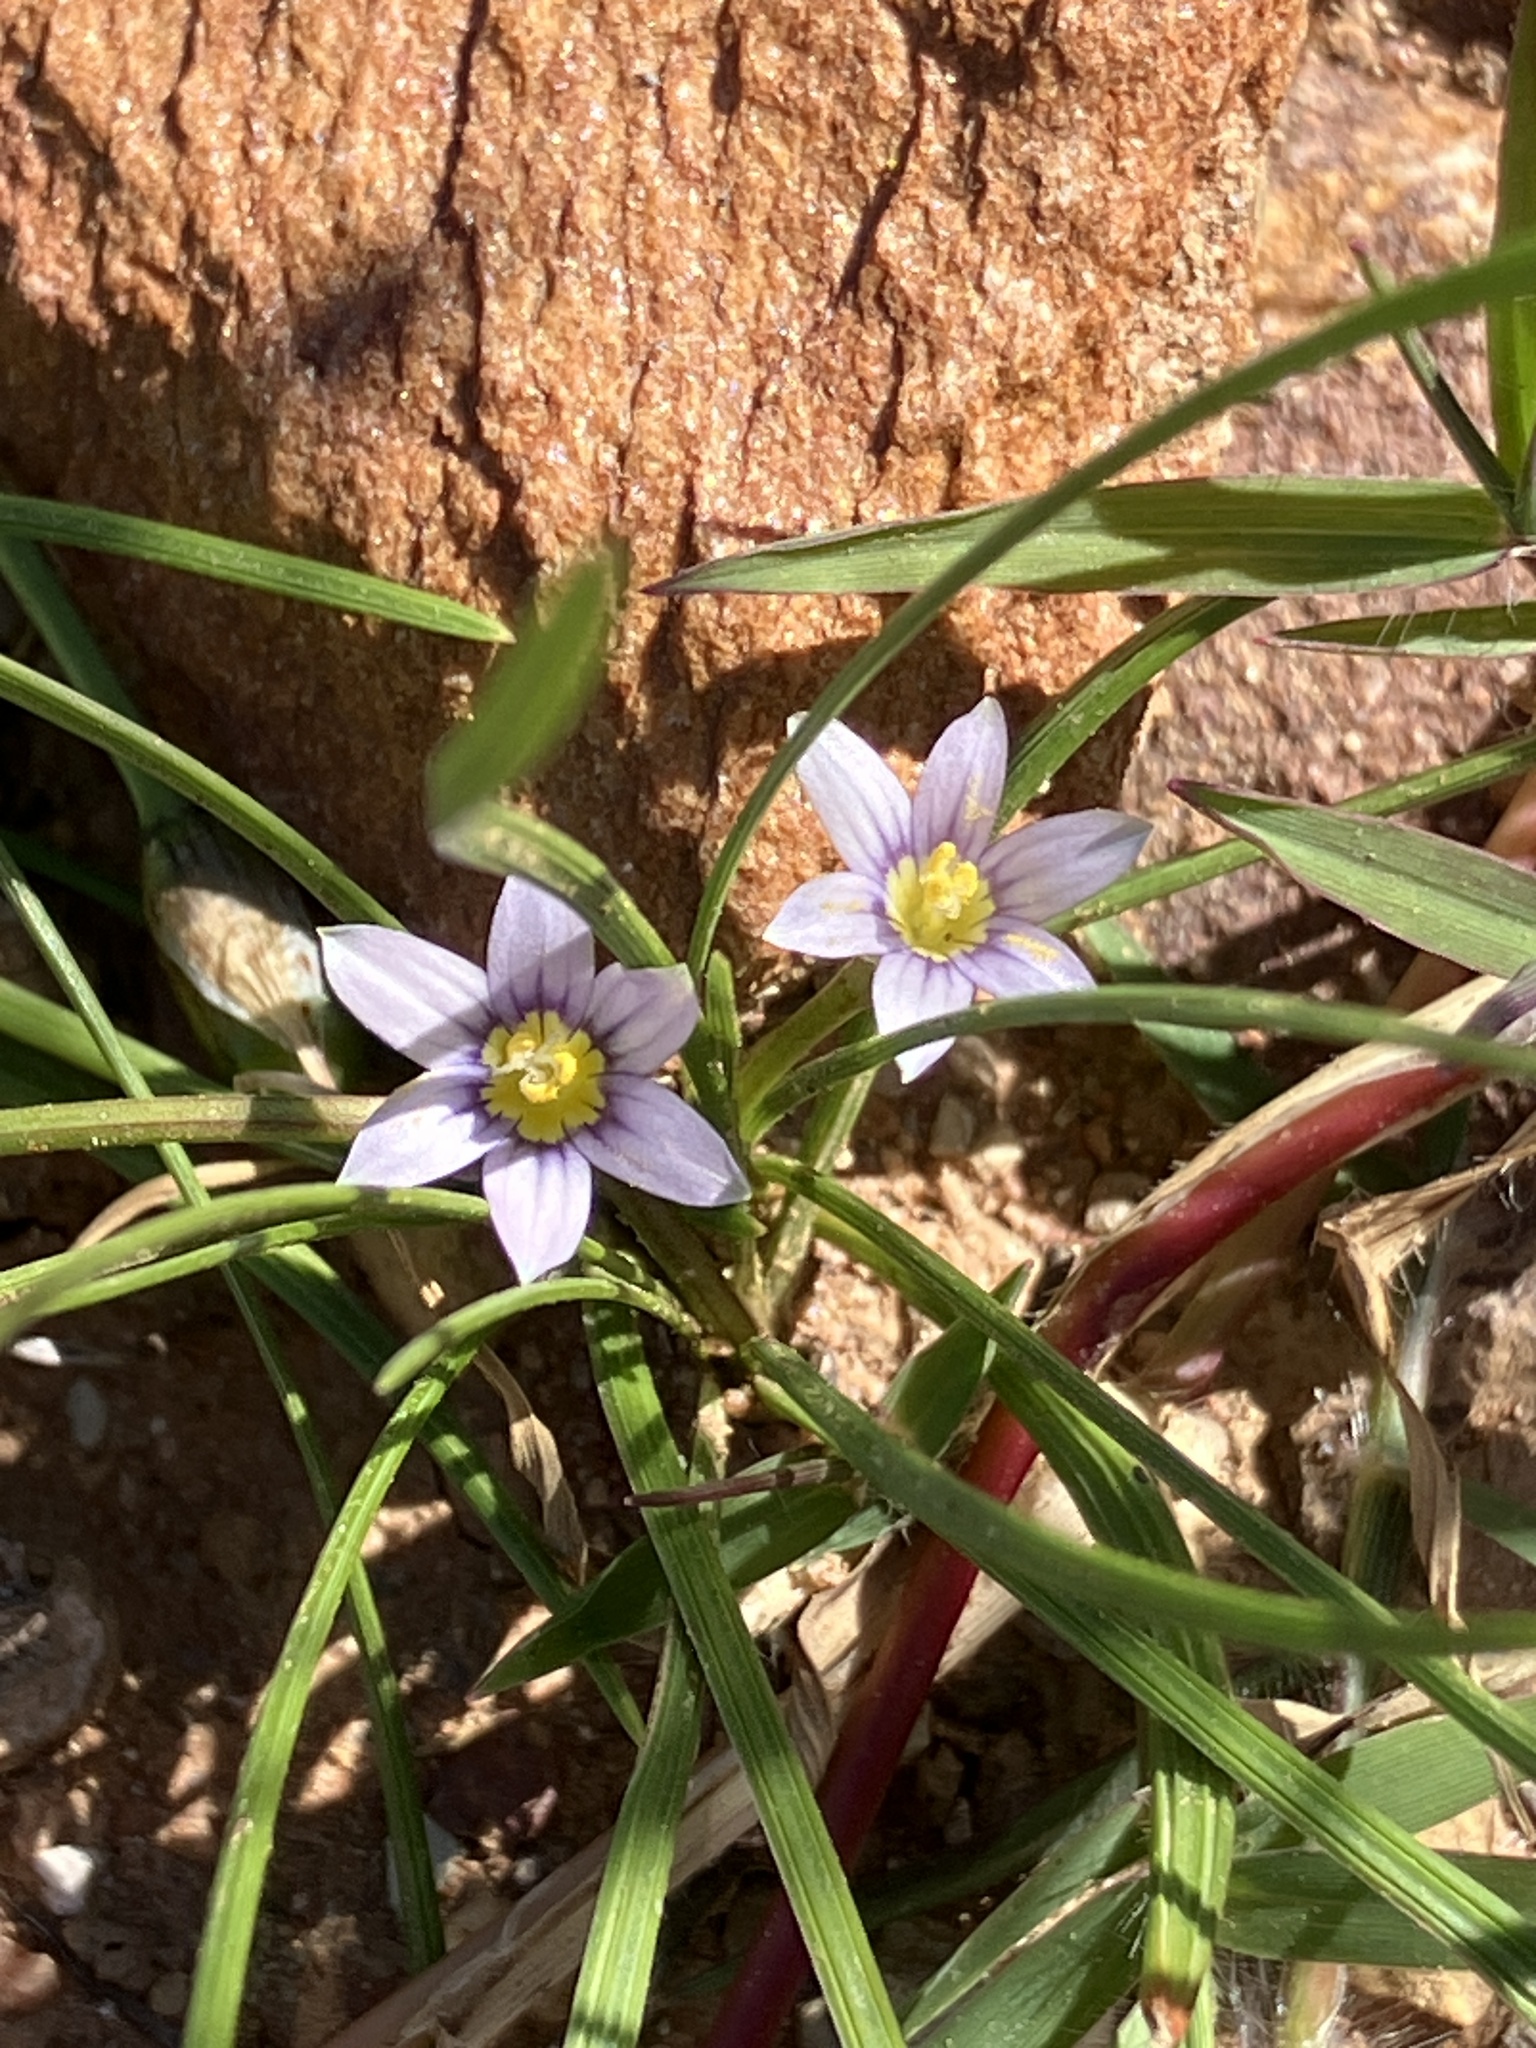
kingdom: Plantae
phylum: Tracheophyta
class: Liliopsida
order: Asparagales
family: Iridaceae
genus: Romulea
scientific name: Romulea minutiflora
